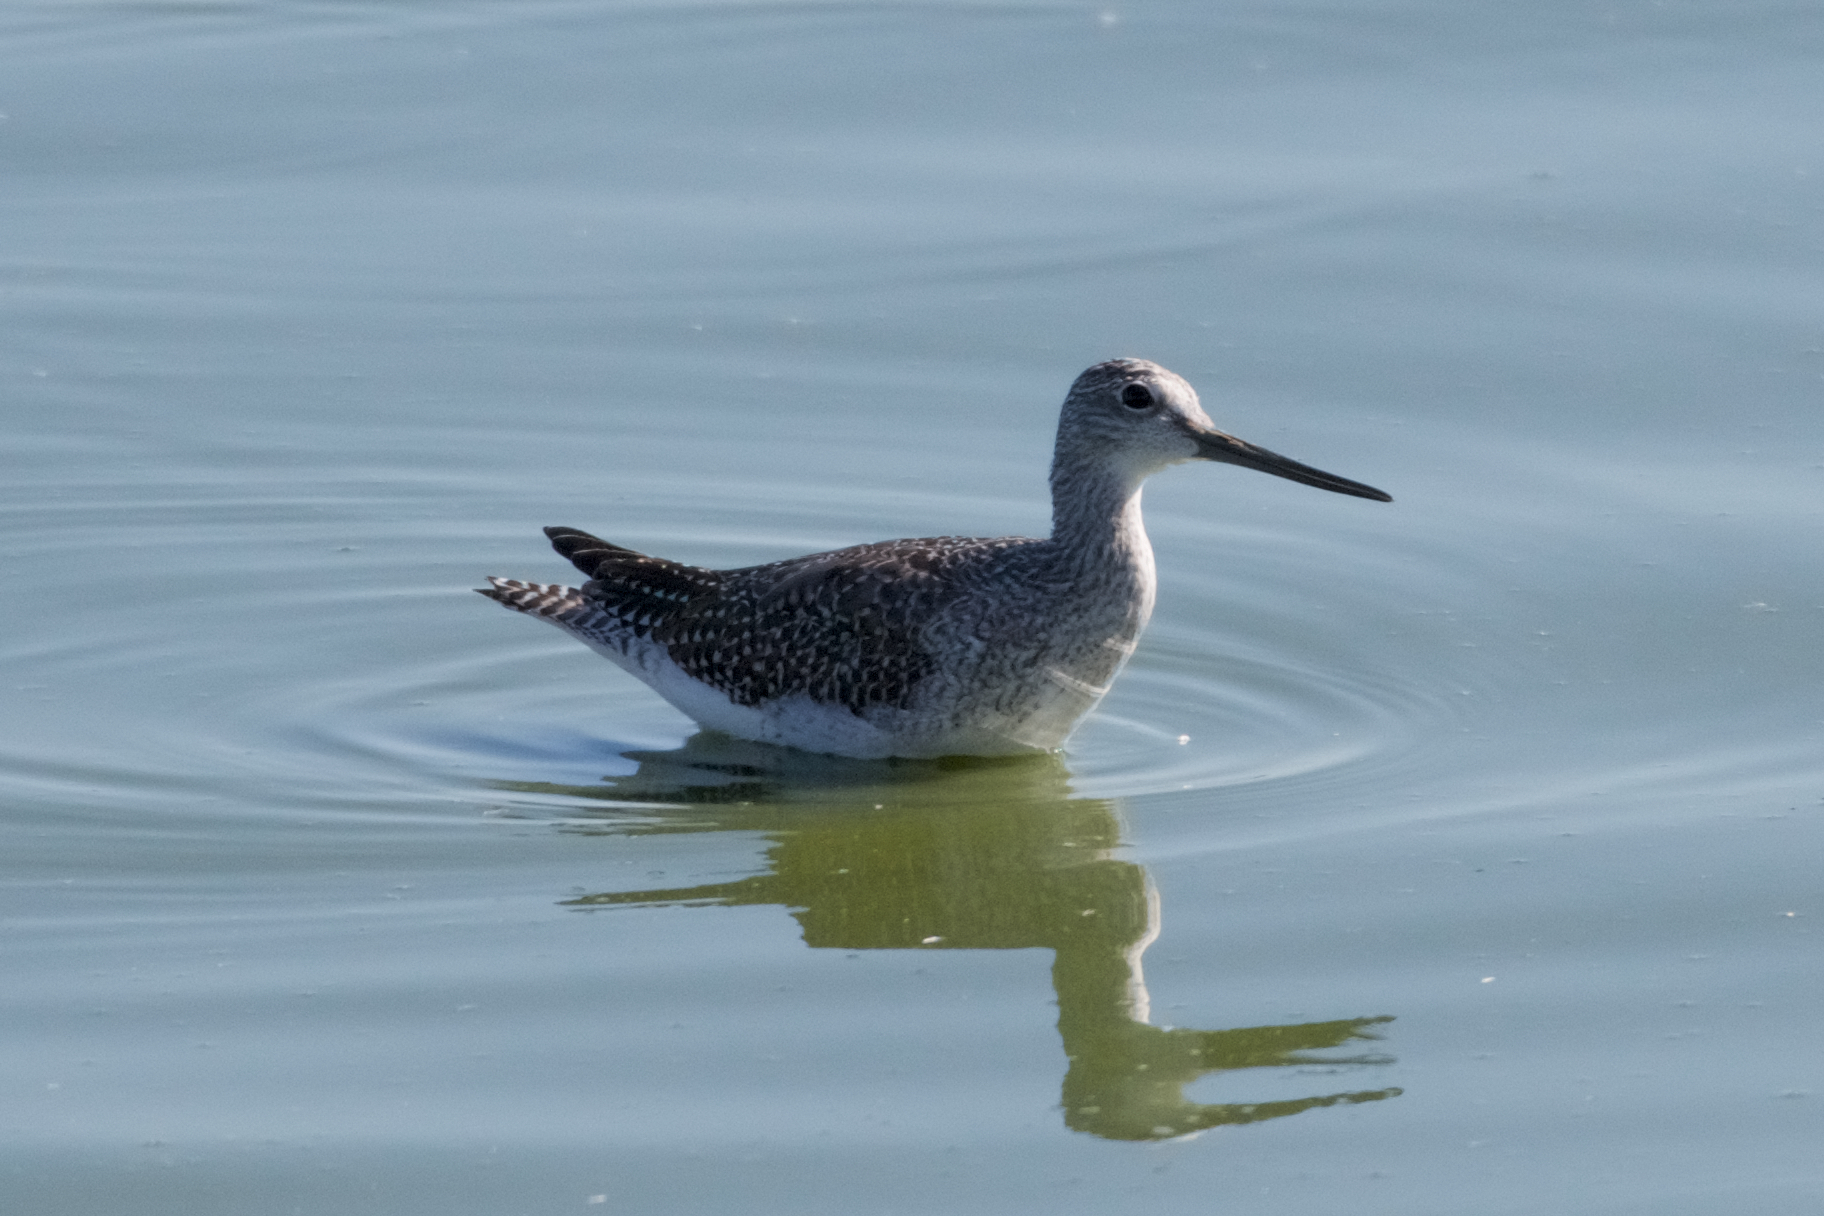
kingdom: Animalia
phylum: Chordata
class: Aves
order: Charadriiformes
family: Scolopacidae
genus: Tringa
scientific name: Tringa melanoleuca
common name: Greater yellowlegs
